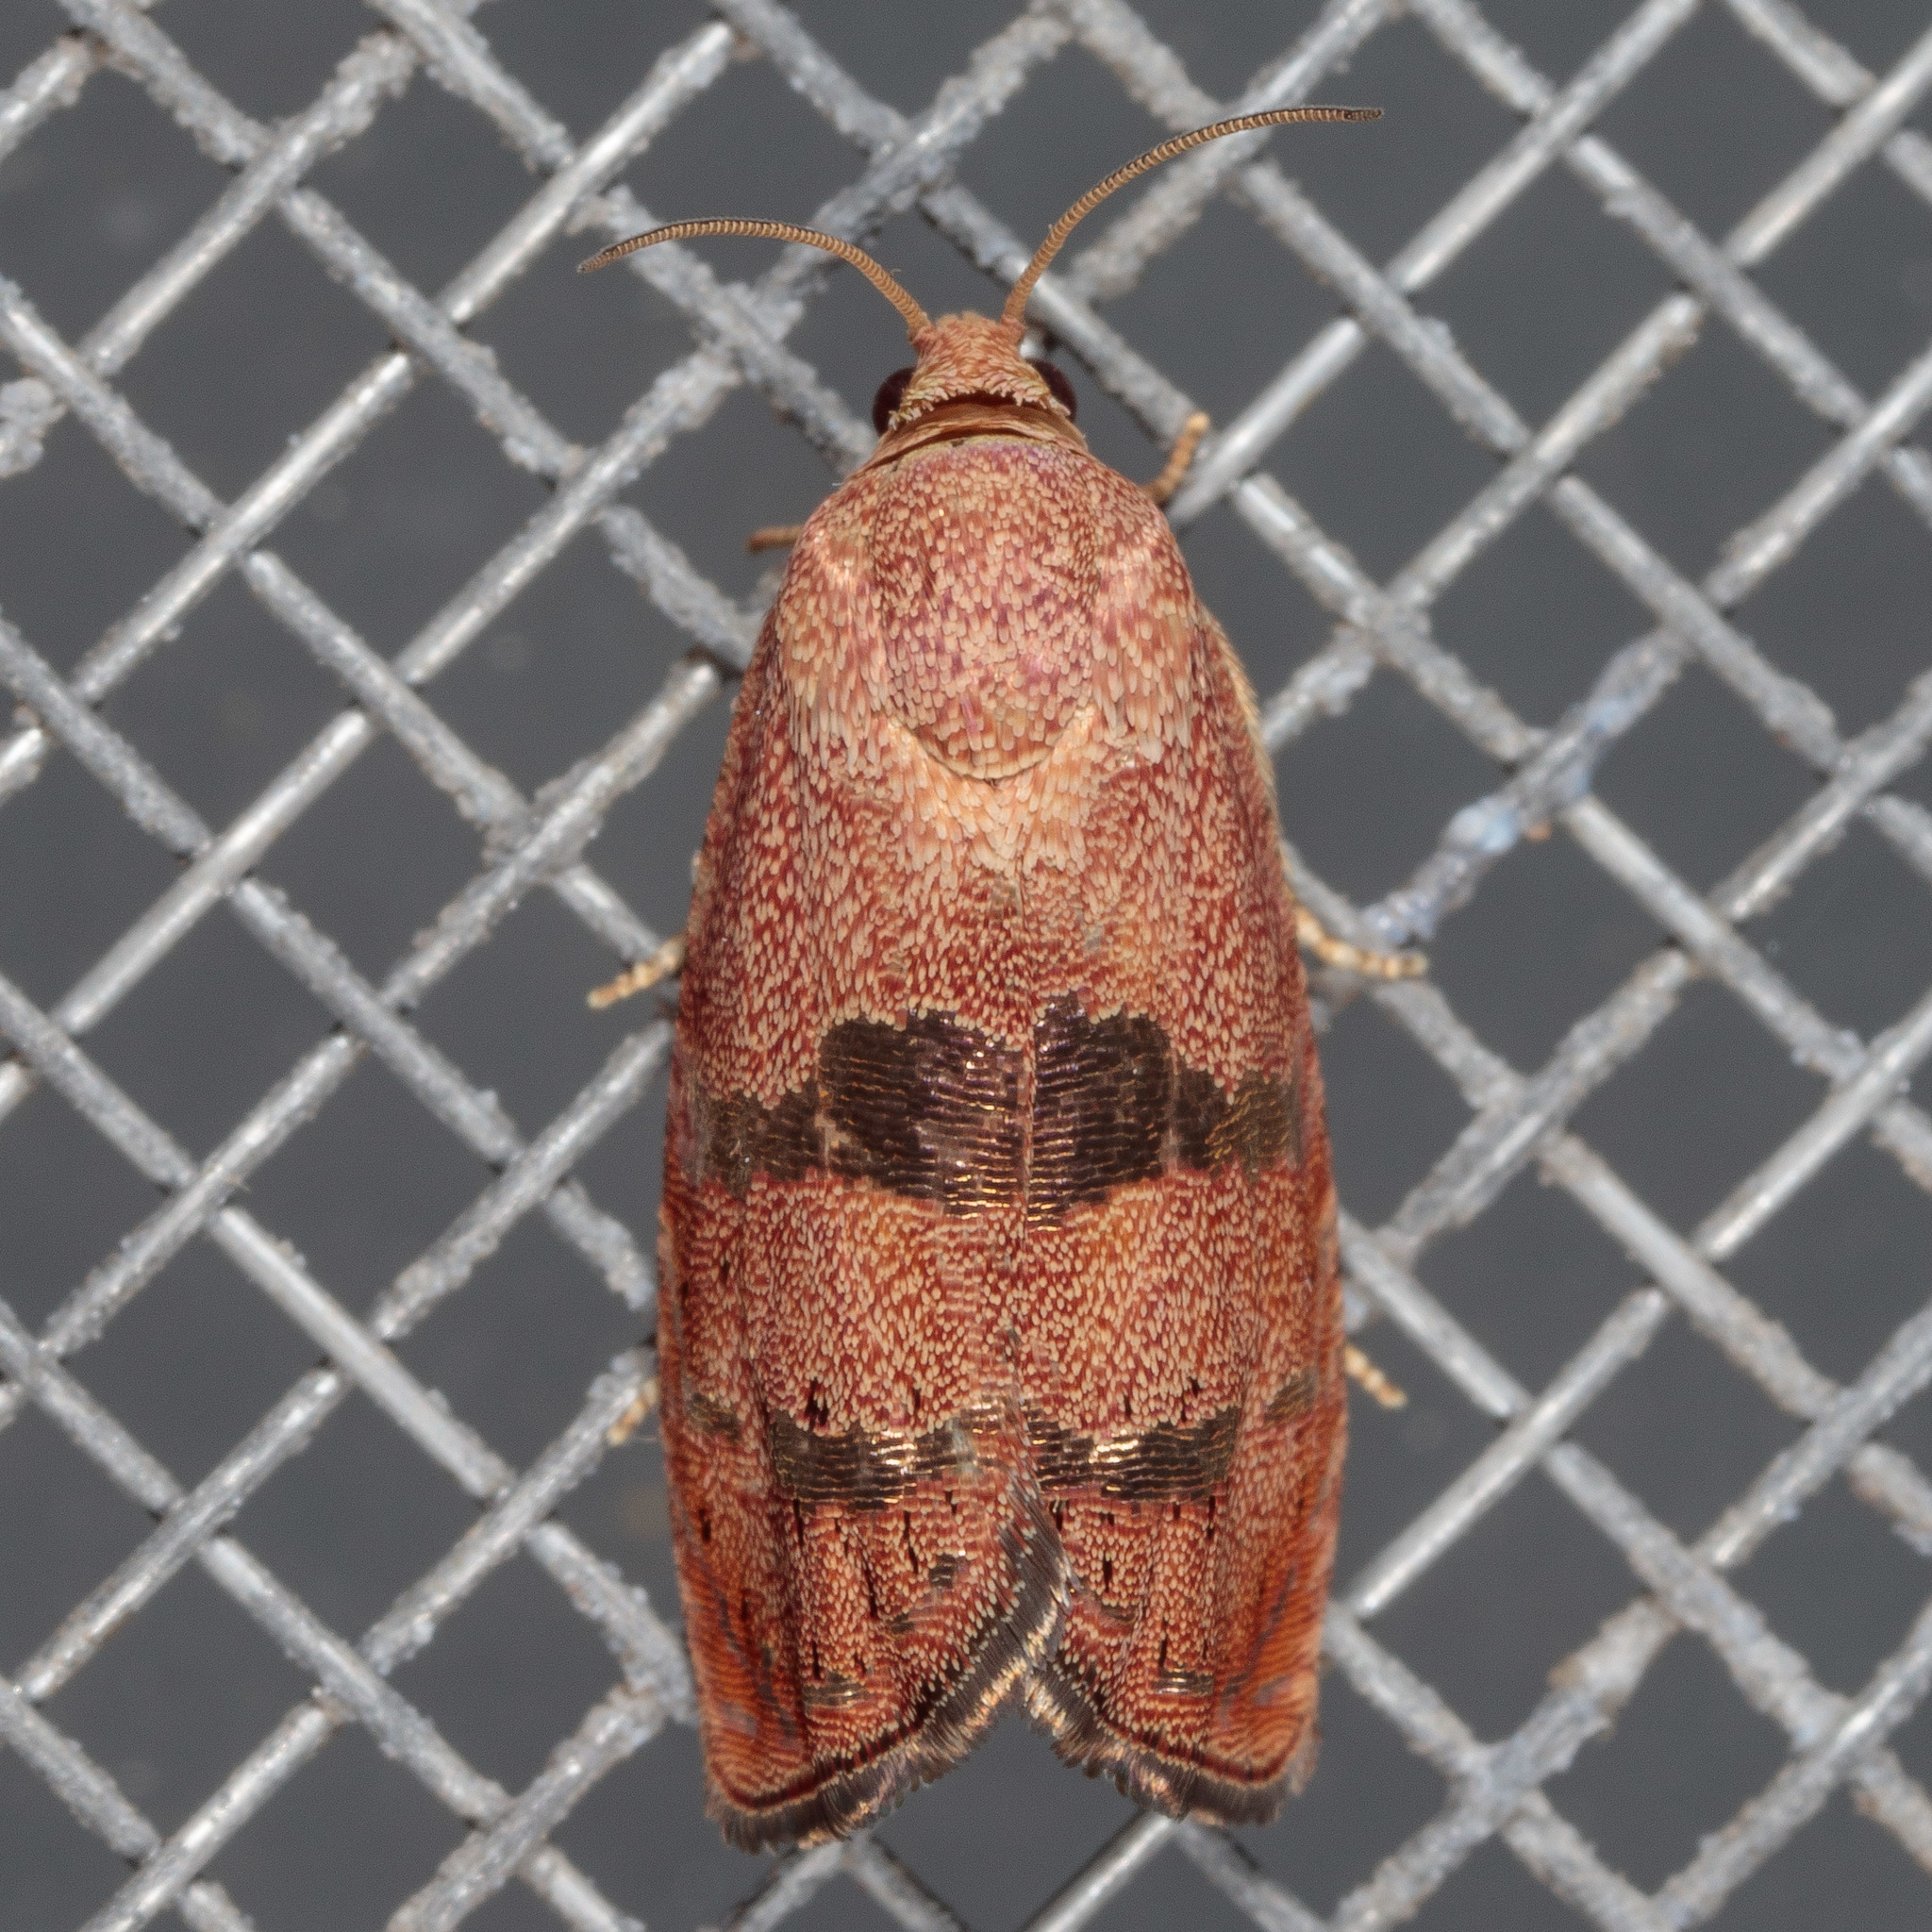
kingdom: Animalia
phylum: Arthropoda
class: Insecta
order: Lepidoptera
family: Tortricidae
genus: Cydia
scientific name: Cydia latiferreana
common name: Filbertworm moth
